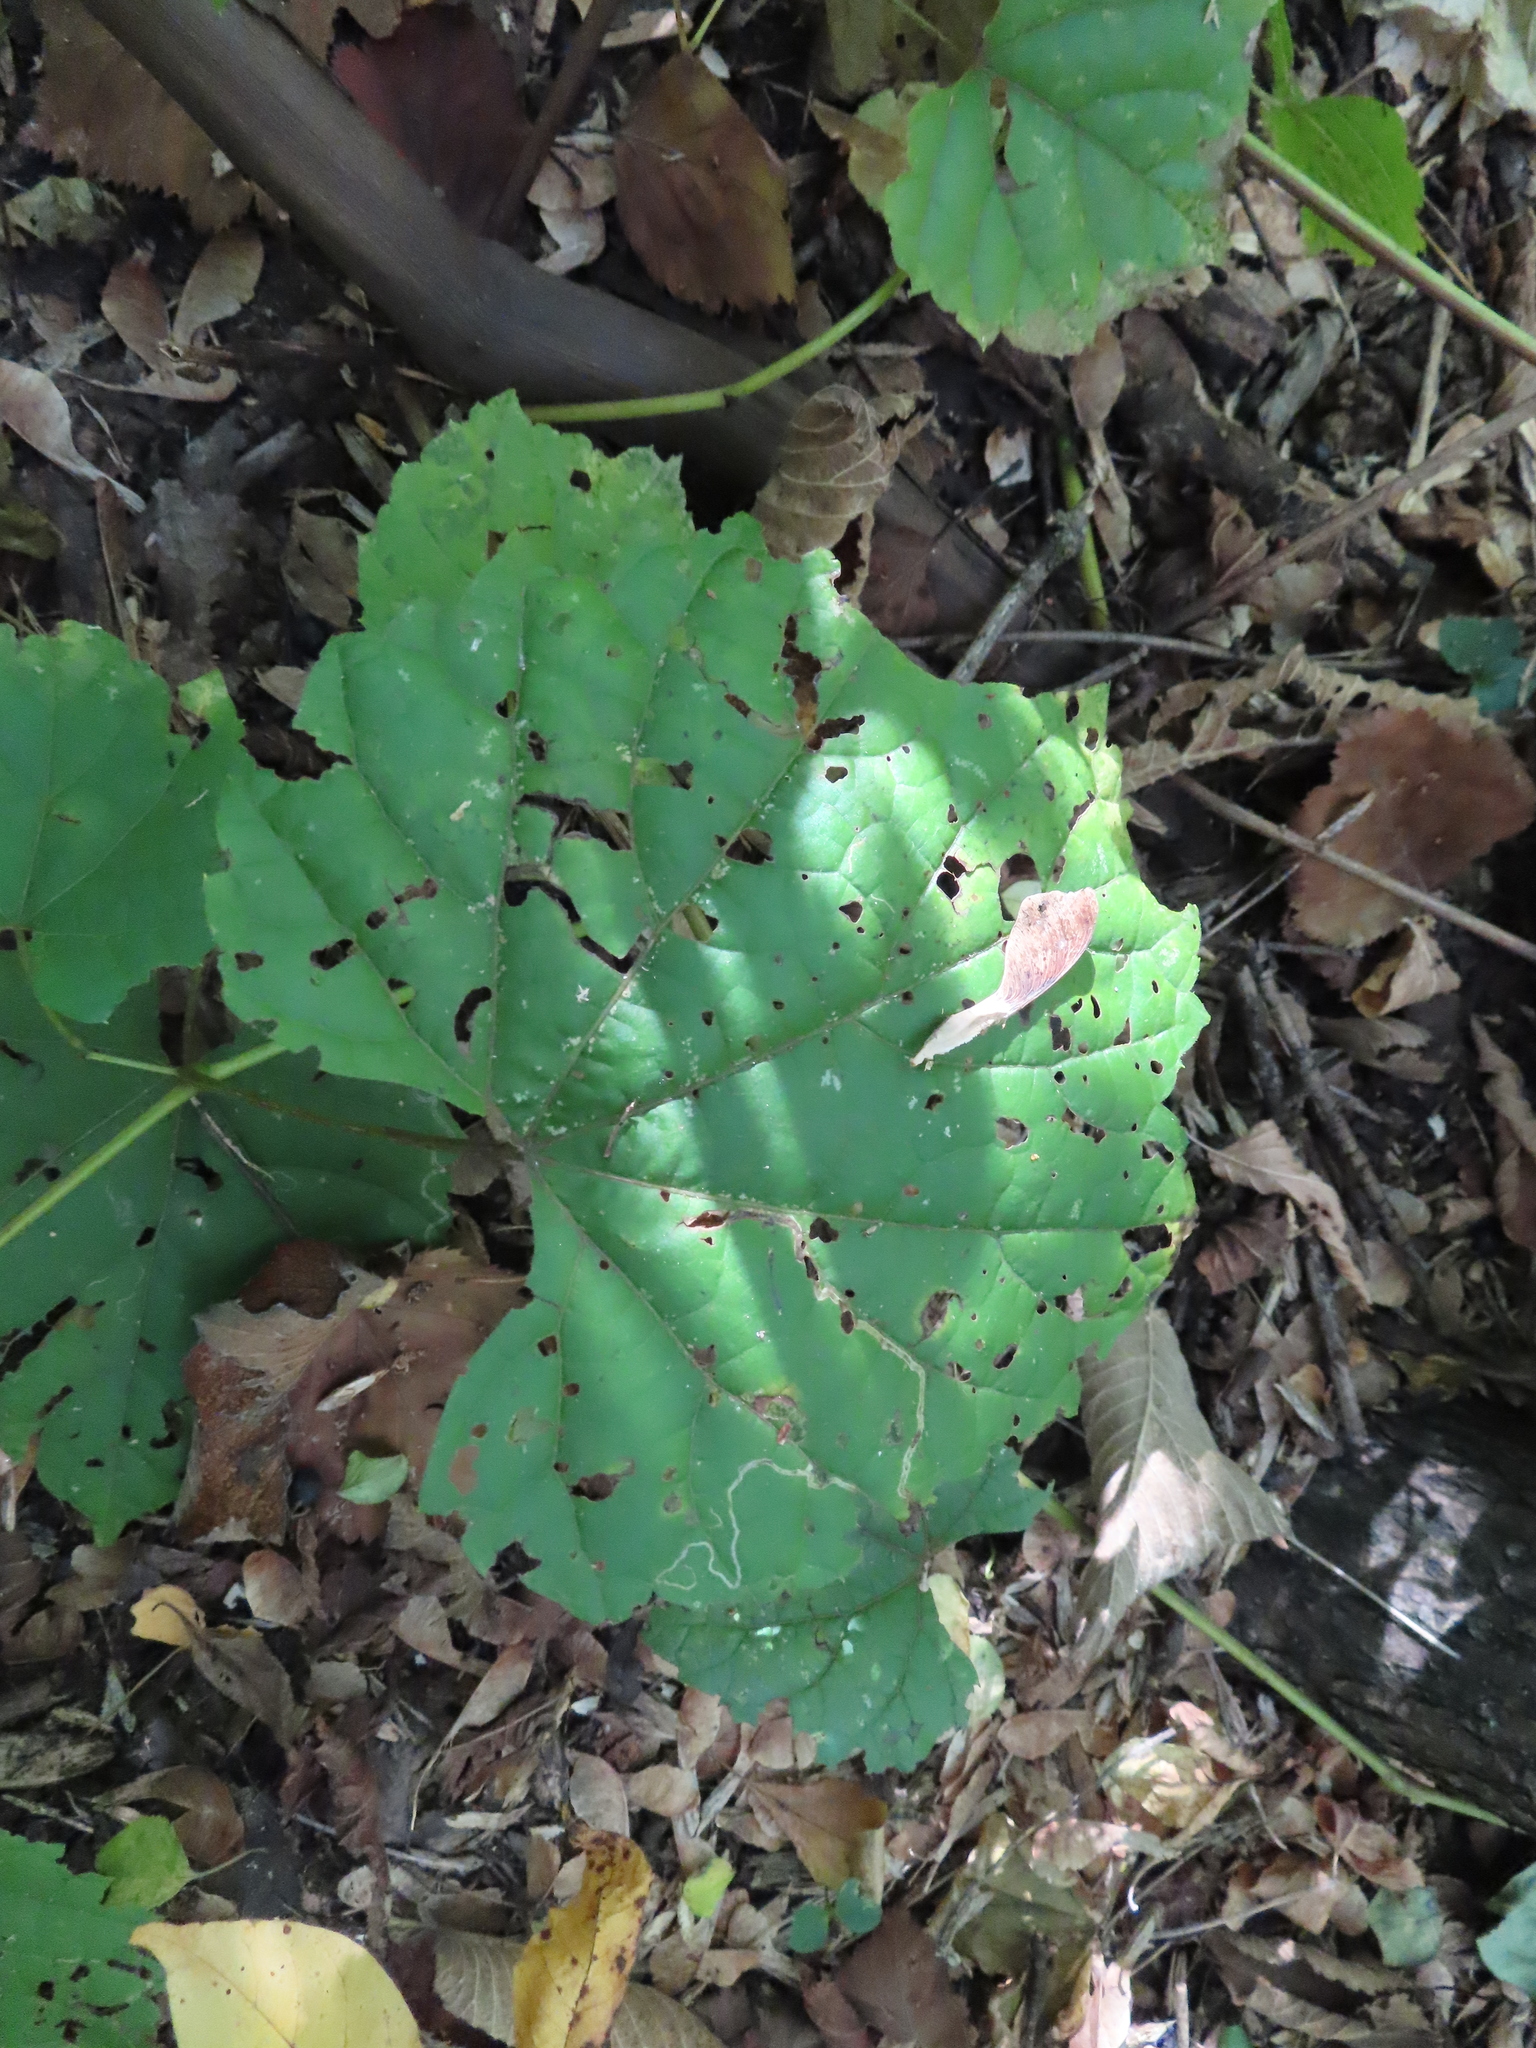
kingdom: Plantae
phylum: Tracheophyta
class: Magnoliopsida
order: Vitales
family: Vitaceae
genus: Vitis
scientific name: Vitis riparia
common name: Frost grape
